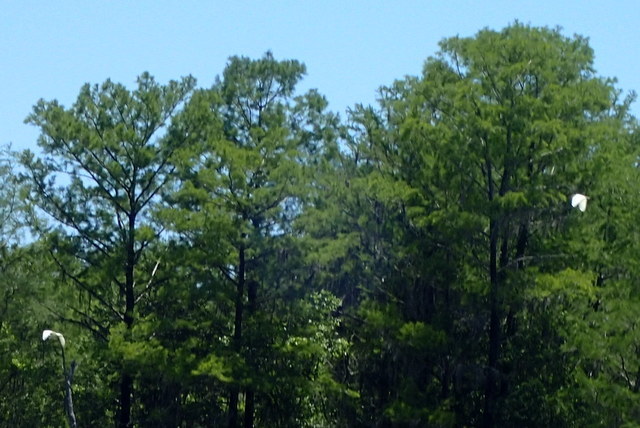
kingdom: Animalia
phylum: Chordata
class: Aves
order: Pelecaniformes
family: Ardeidae
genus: Ardea
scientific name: Ardea alba
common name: Great egret
